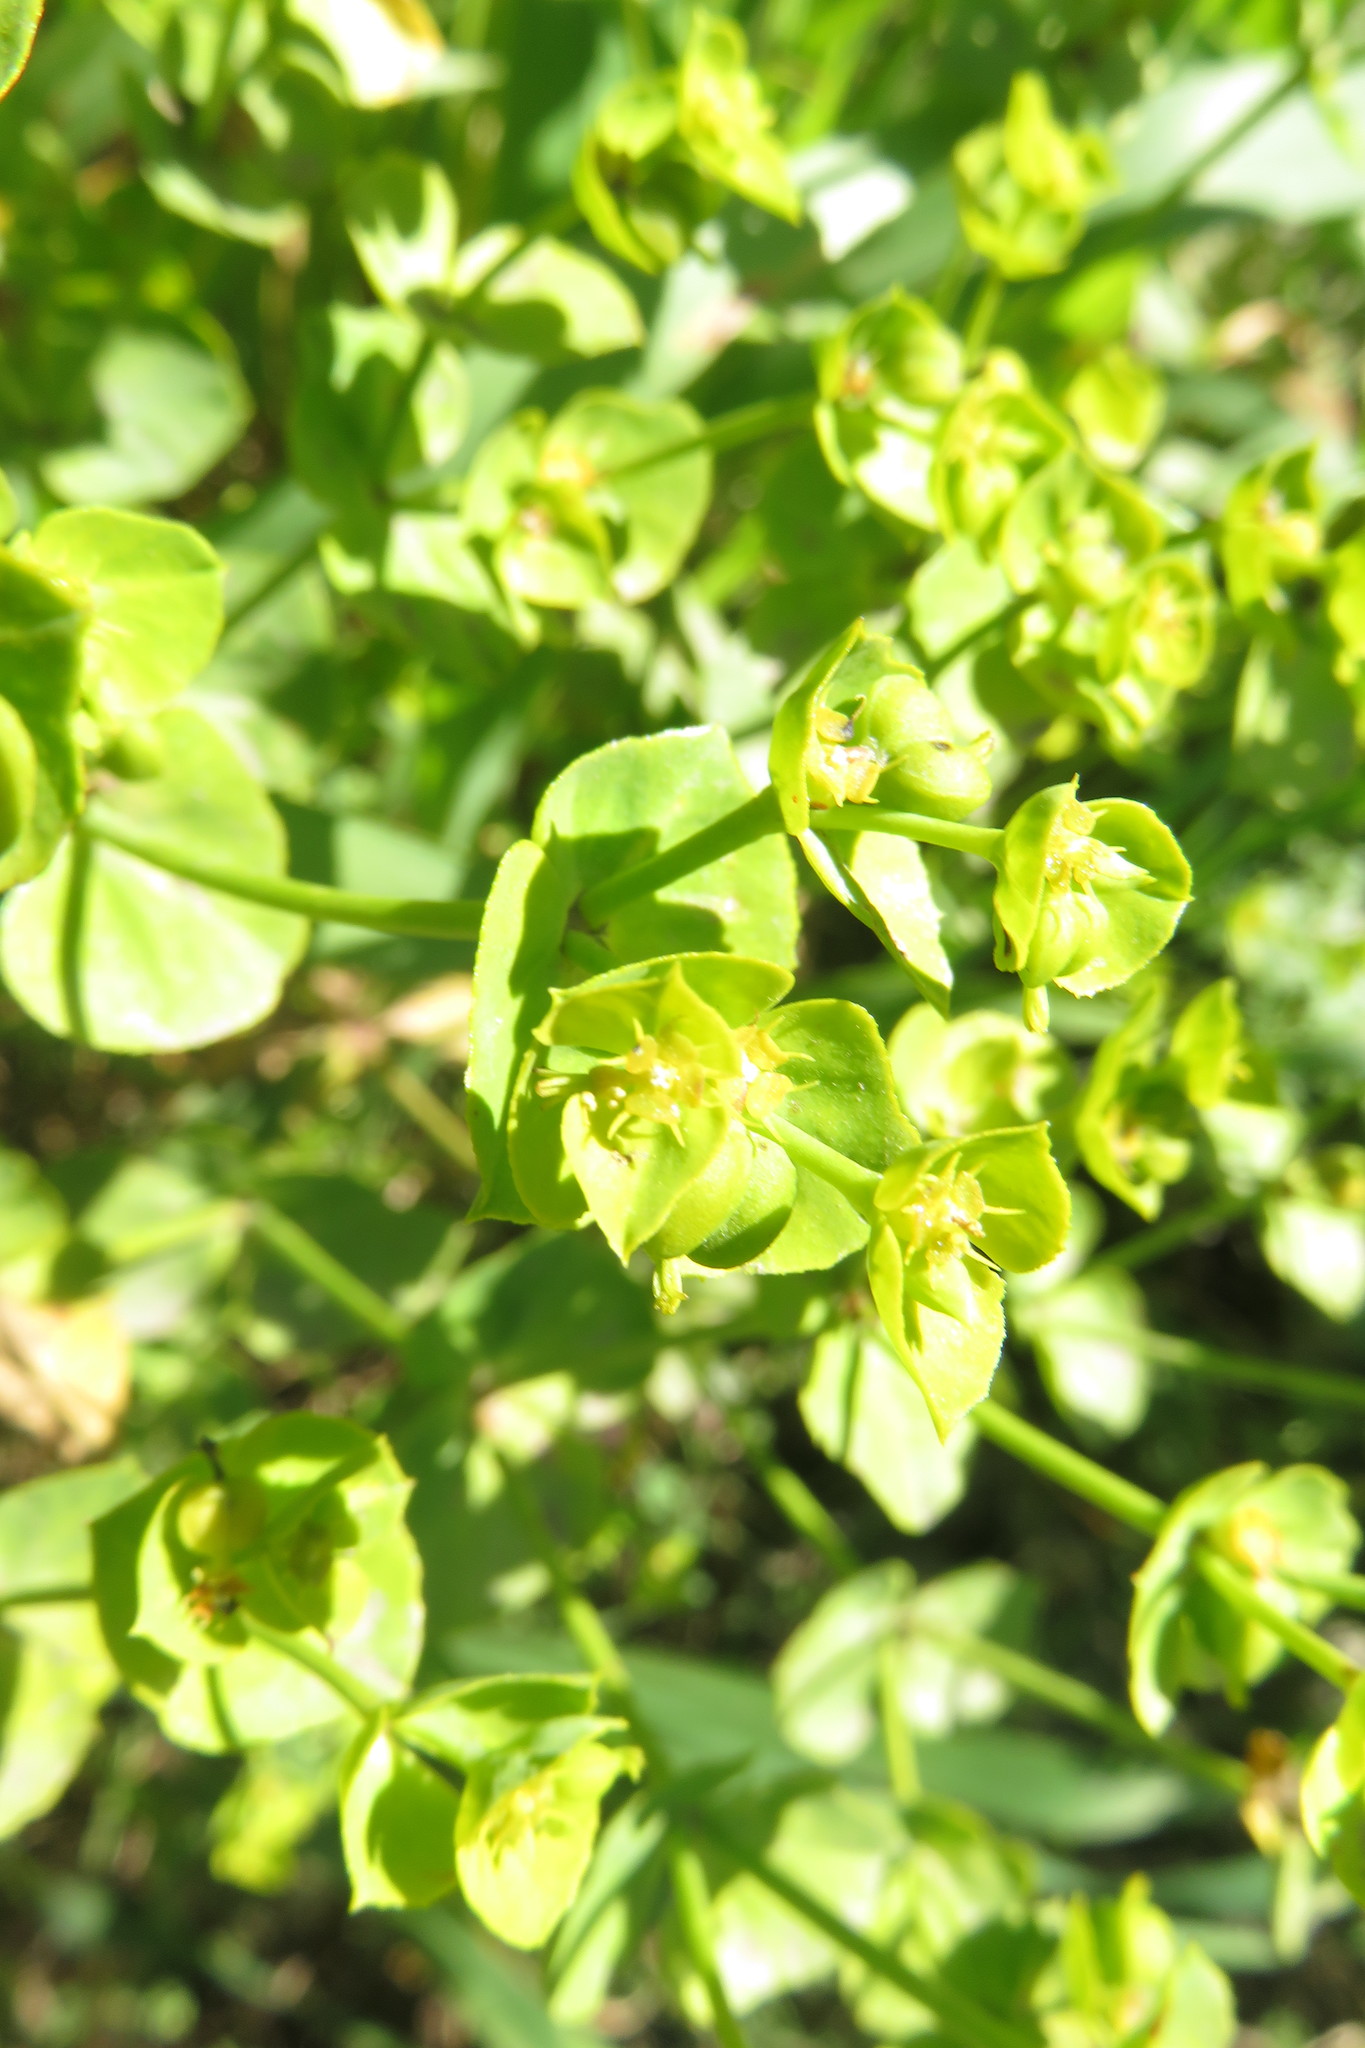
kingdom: Plantae
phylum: Tracheophyta
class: Magnoliopsida
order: Malpighiales
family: Euphorbiaceae
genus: Euphorbia
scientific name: Euphorbia terracina
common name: Geraldton carnation weed
